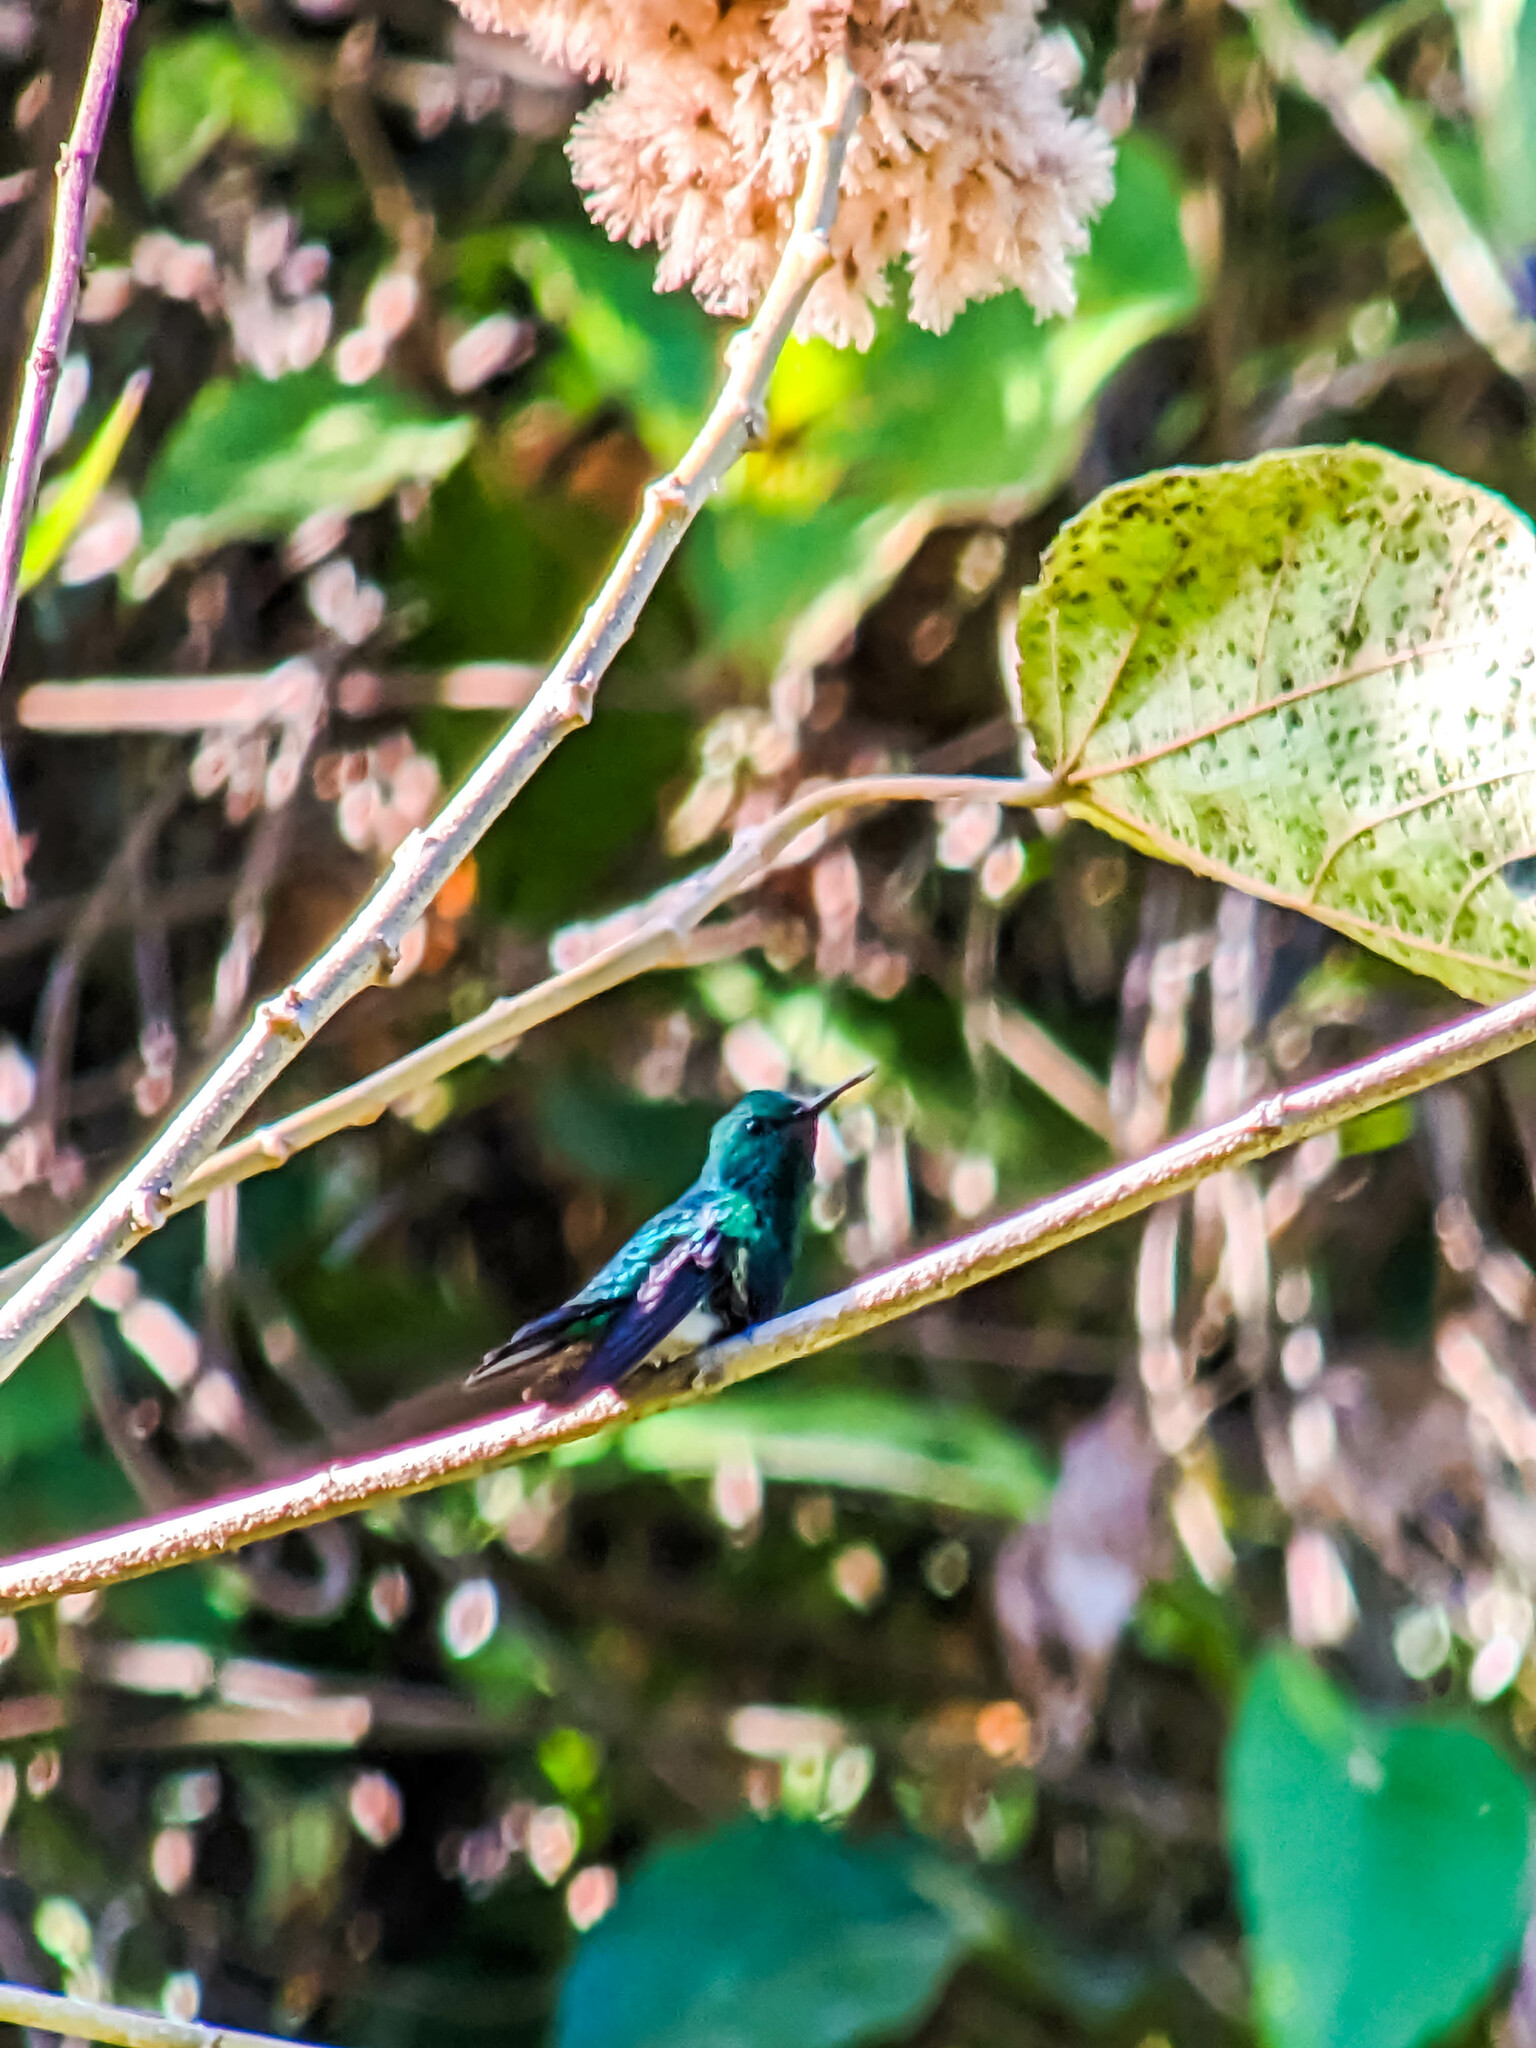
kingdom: Animalia
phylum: Chordata
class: Aves
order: Apodiformes
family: Trochilidae
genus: Chlorostilbon
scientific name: Chlorostilbon assimilis
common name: Garden emerald
